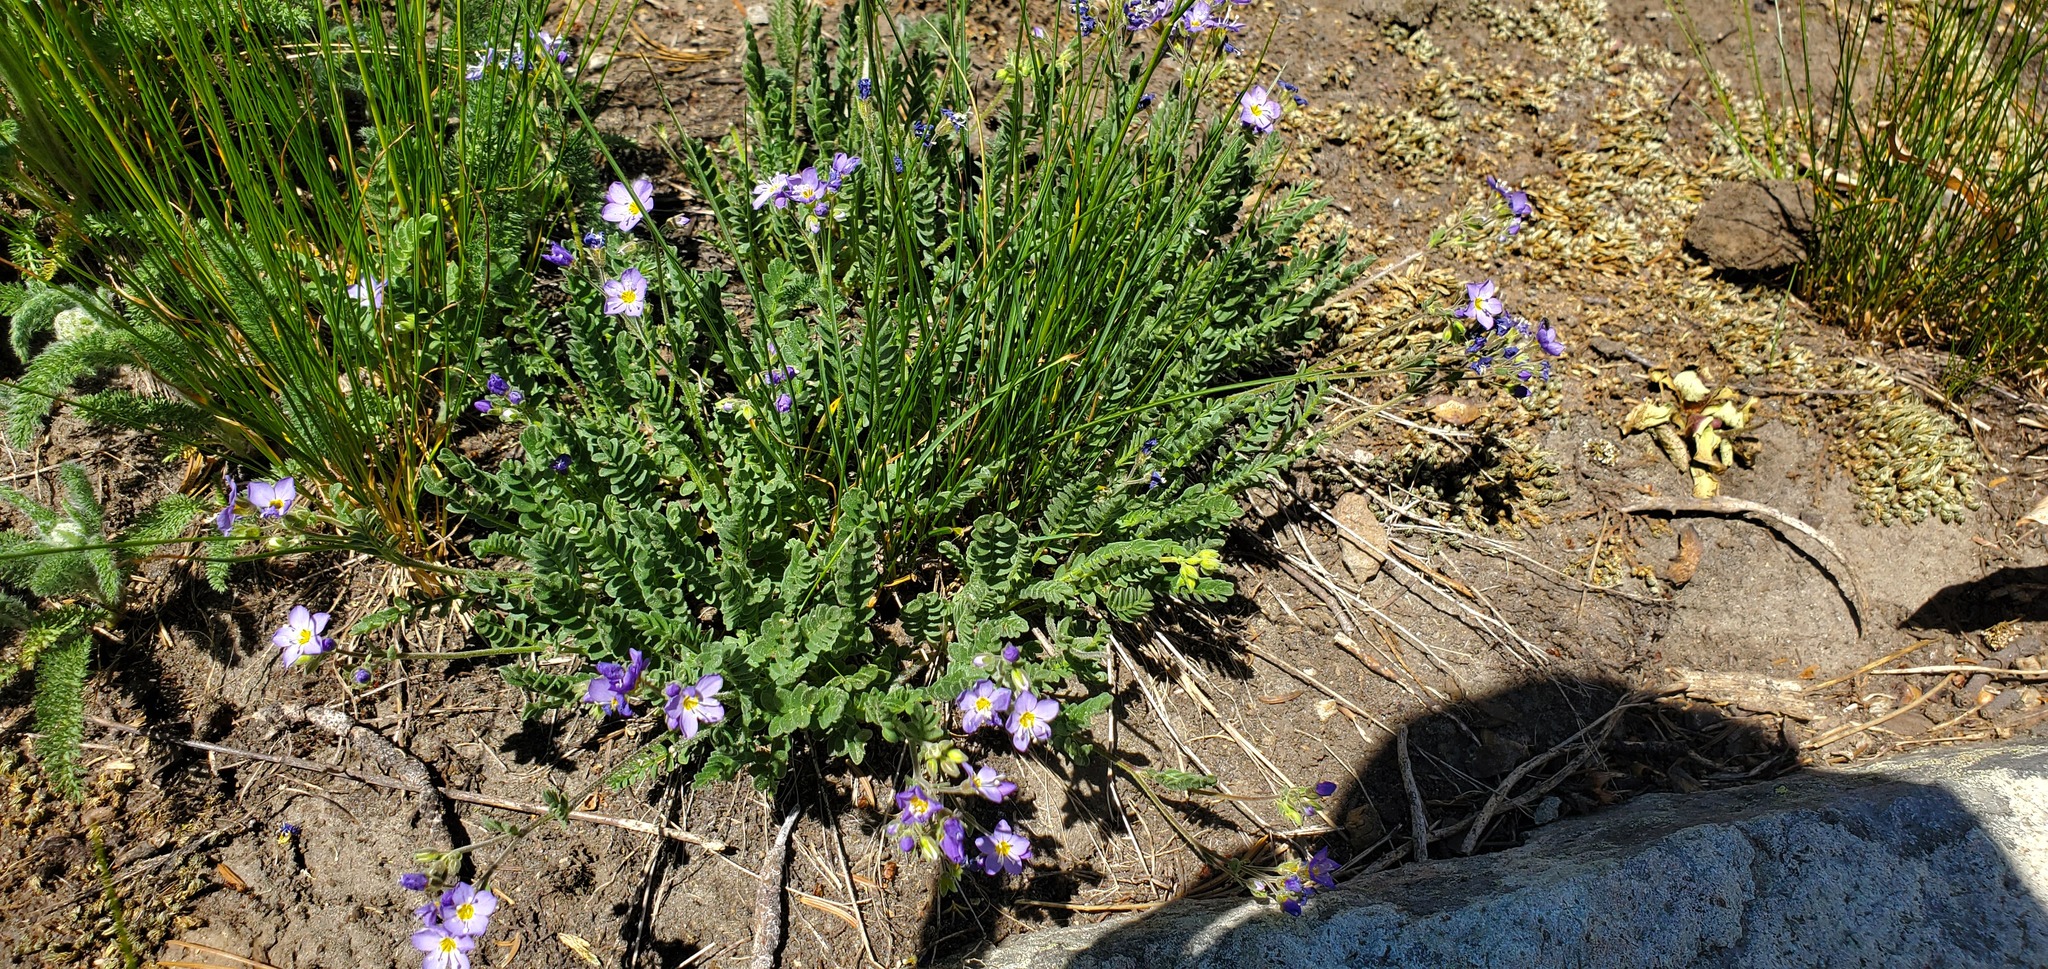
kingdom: Plantae
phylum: Tracheophyta
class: Magnoliopsida
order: Ericales
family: Polemoniaceae
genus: Polemonium
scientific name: Polemonium pulcherrimum
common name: Short jacob's-ladder
